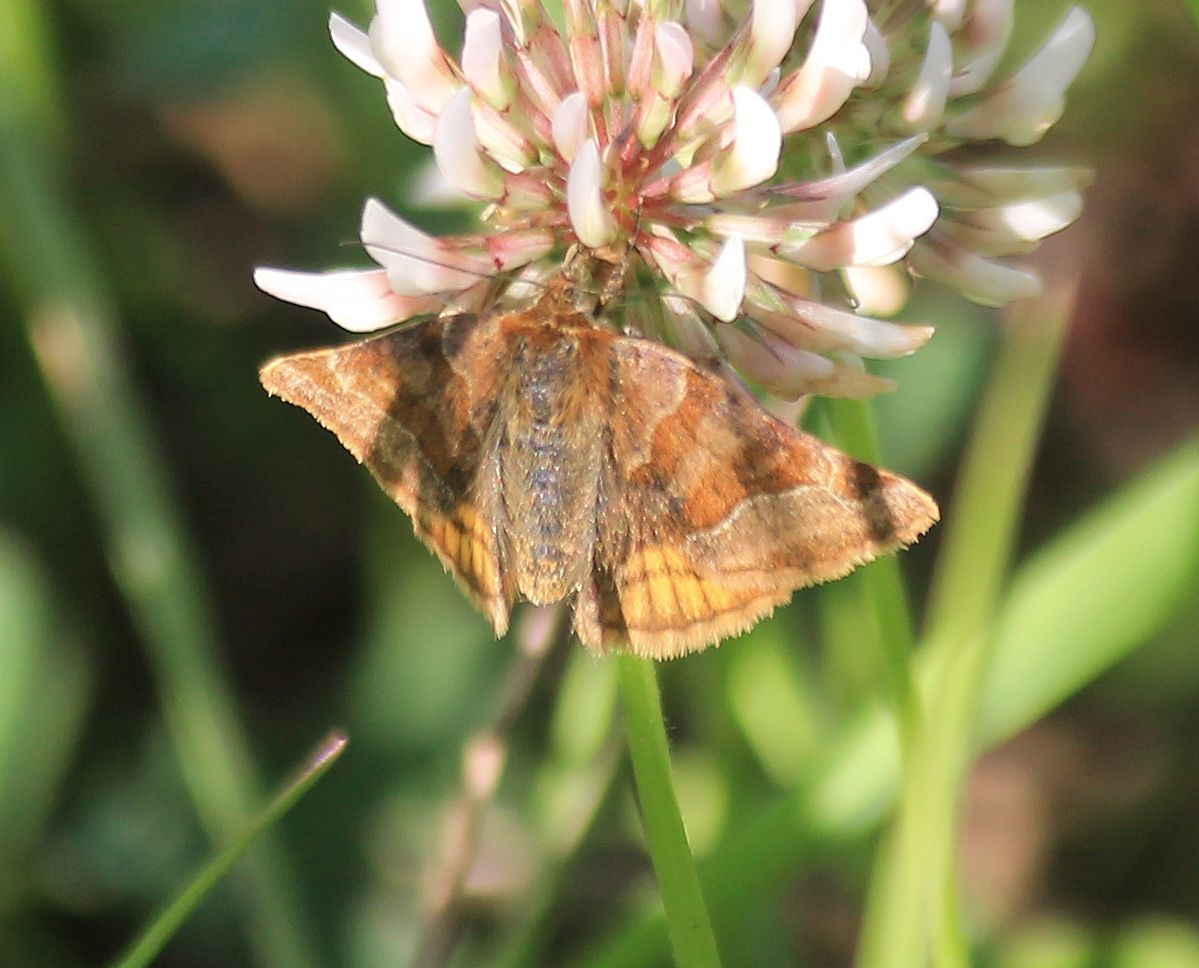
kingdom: Animalia
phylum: Arthropoda
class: Insecta
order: Lepidoptera
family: Erebidae
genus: Euclidia
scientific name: Euclidia glyphica
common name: Burnet companion
